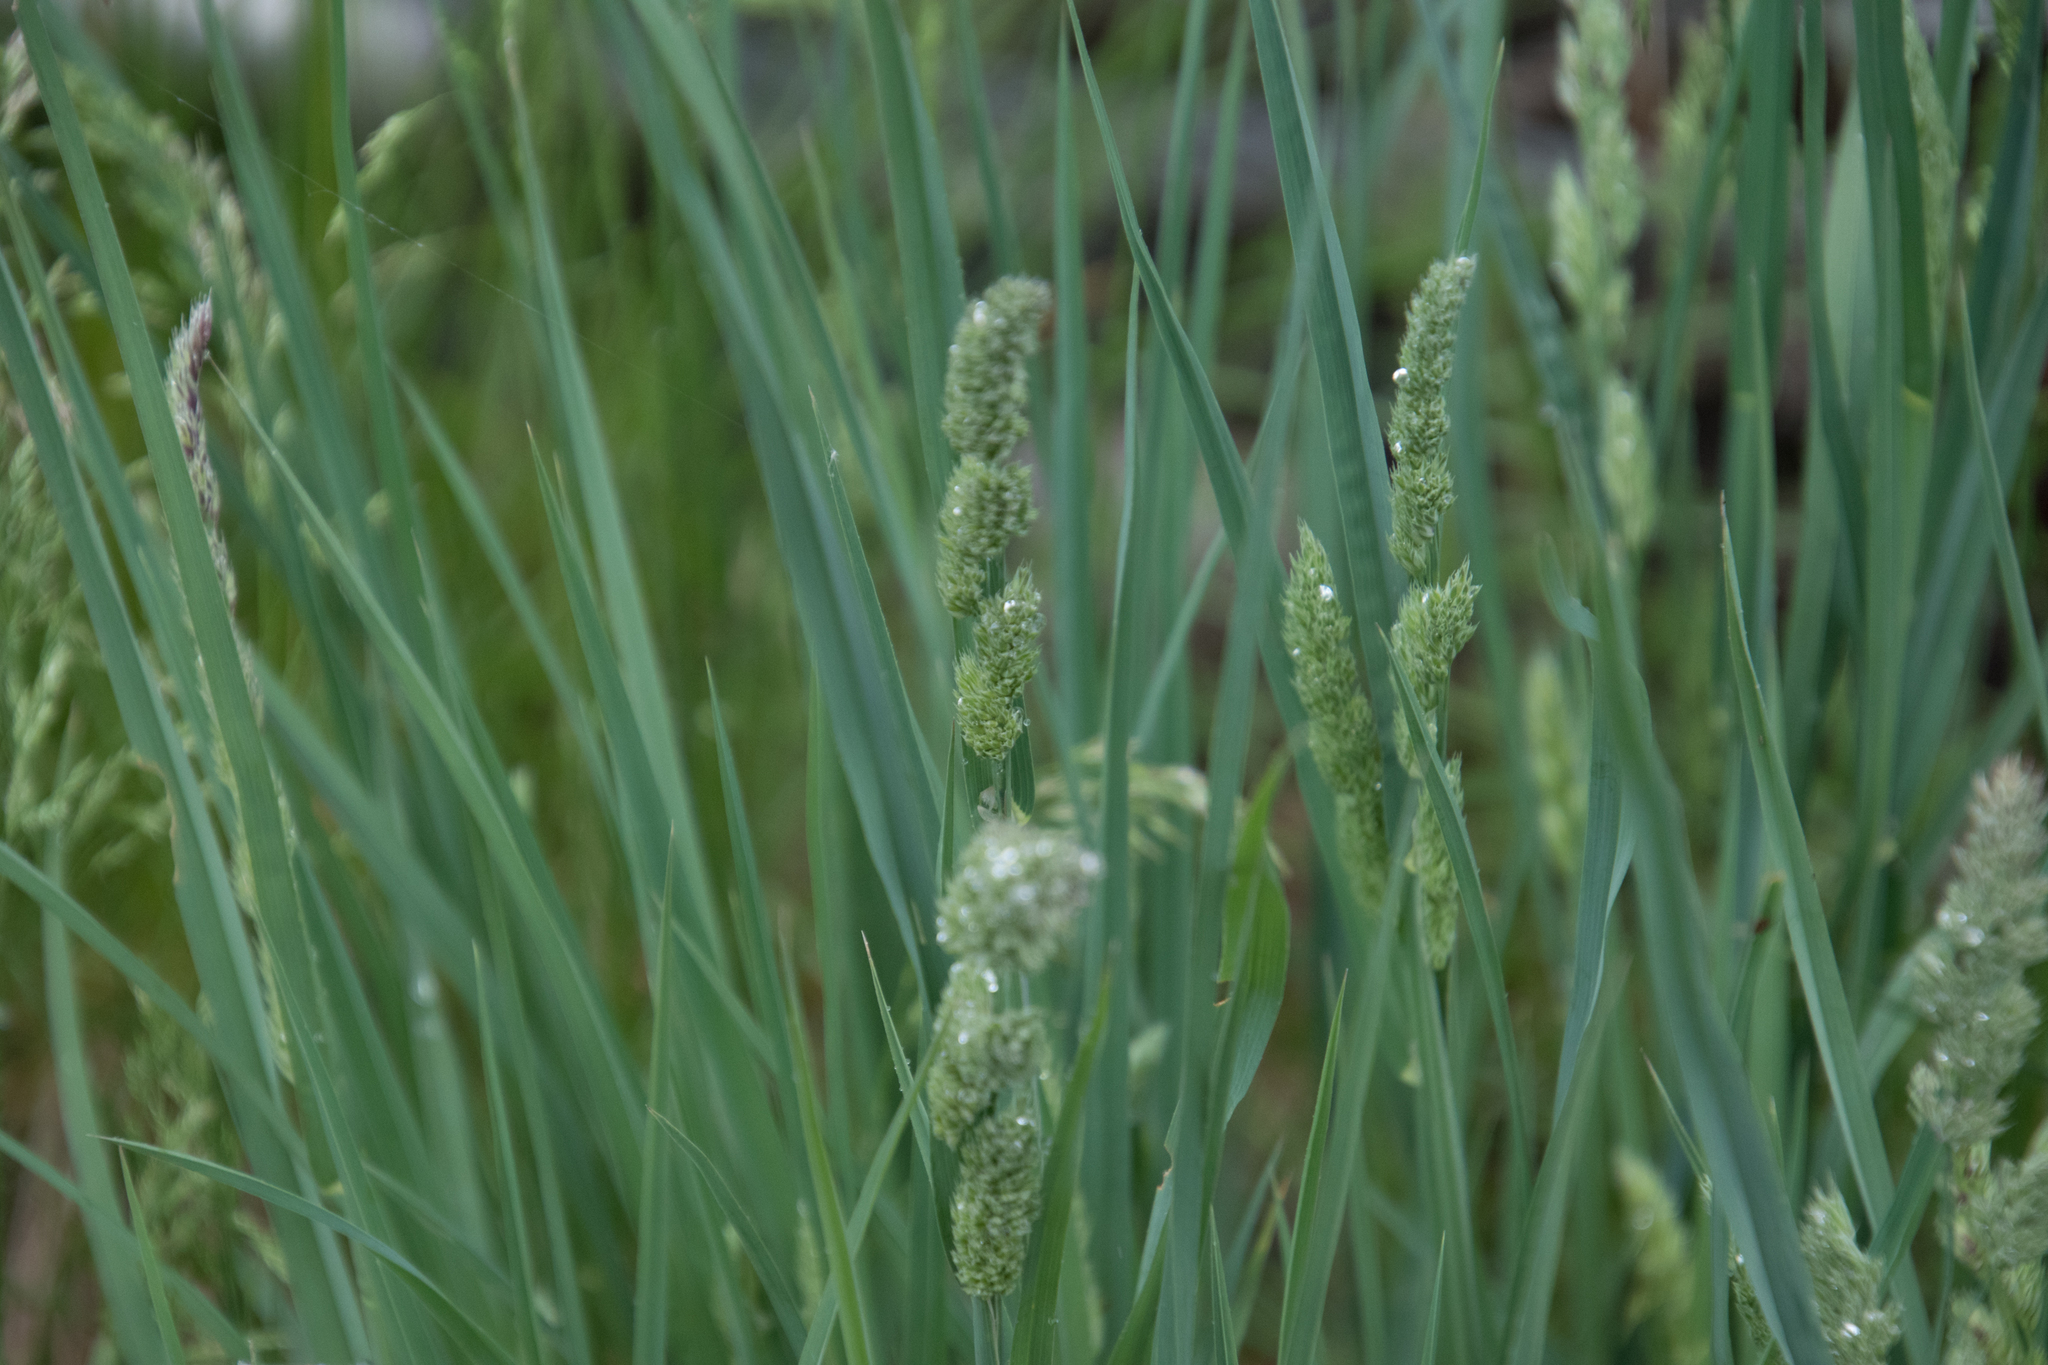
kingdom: Plantae
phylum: Tracheophyta
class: Liliopsida
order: Poales
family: Poaceae
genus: Dactylis
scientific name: Dactylis glomerata
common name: Orchardgrass
